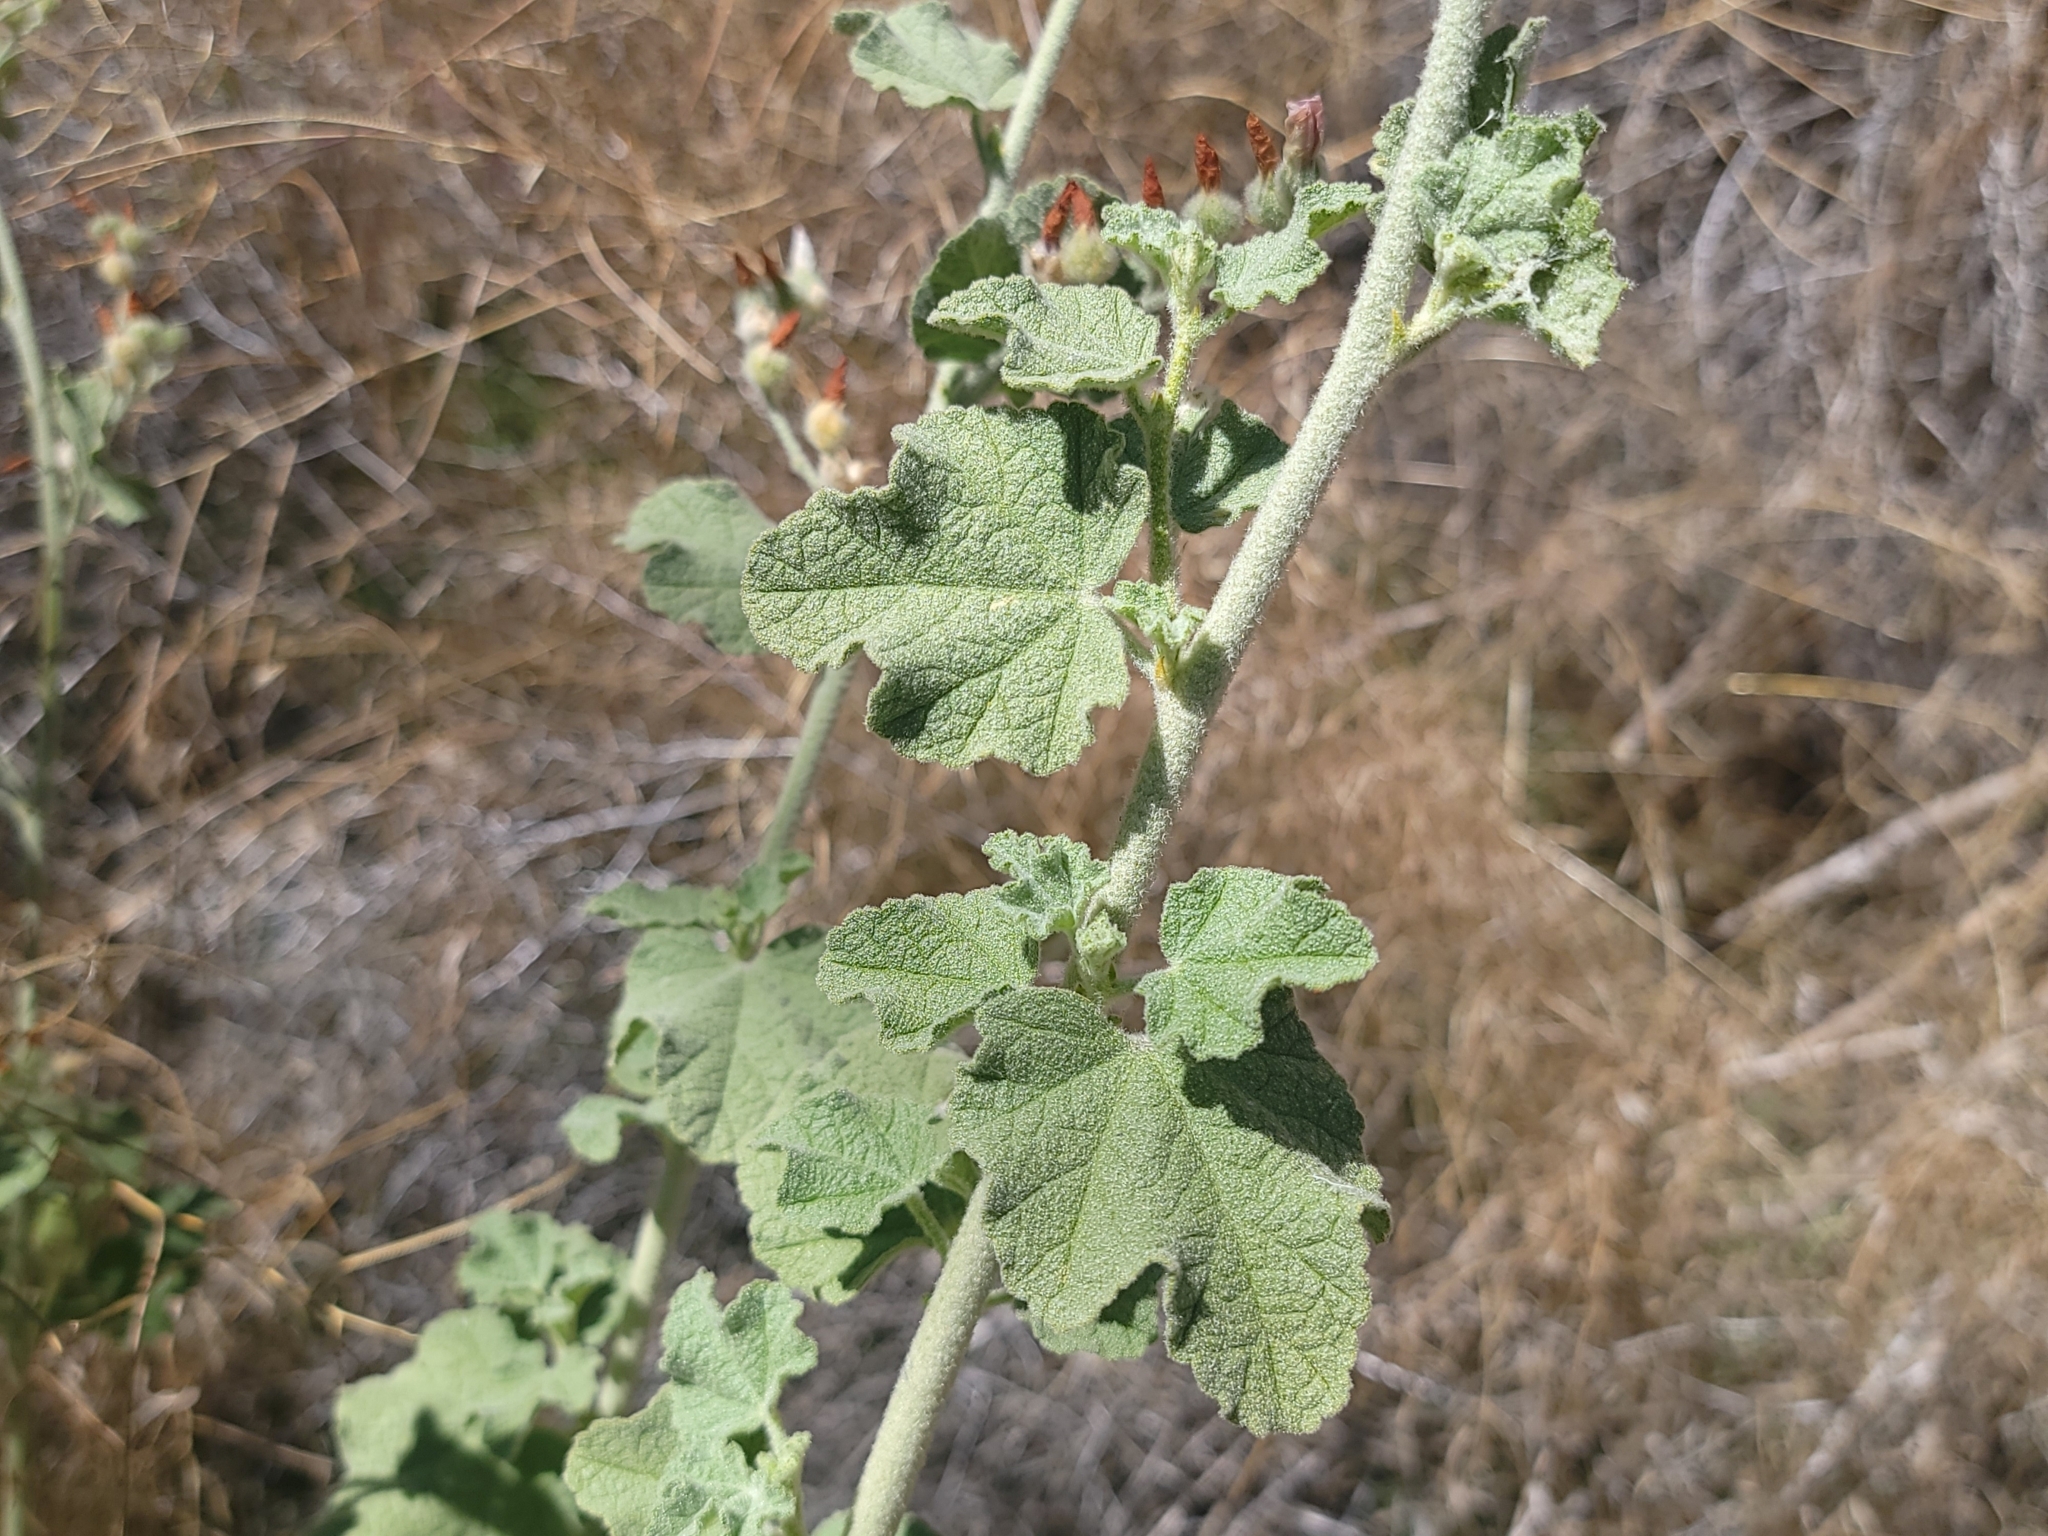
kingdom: Plantae
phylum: Tracheophyta
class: Magnoliopsida
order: Malvales
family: Malvaceae
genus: Malacothamnus
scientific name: Malacothamnus fremontii
